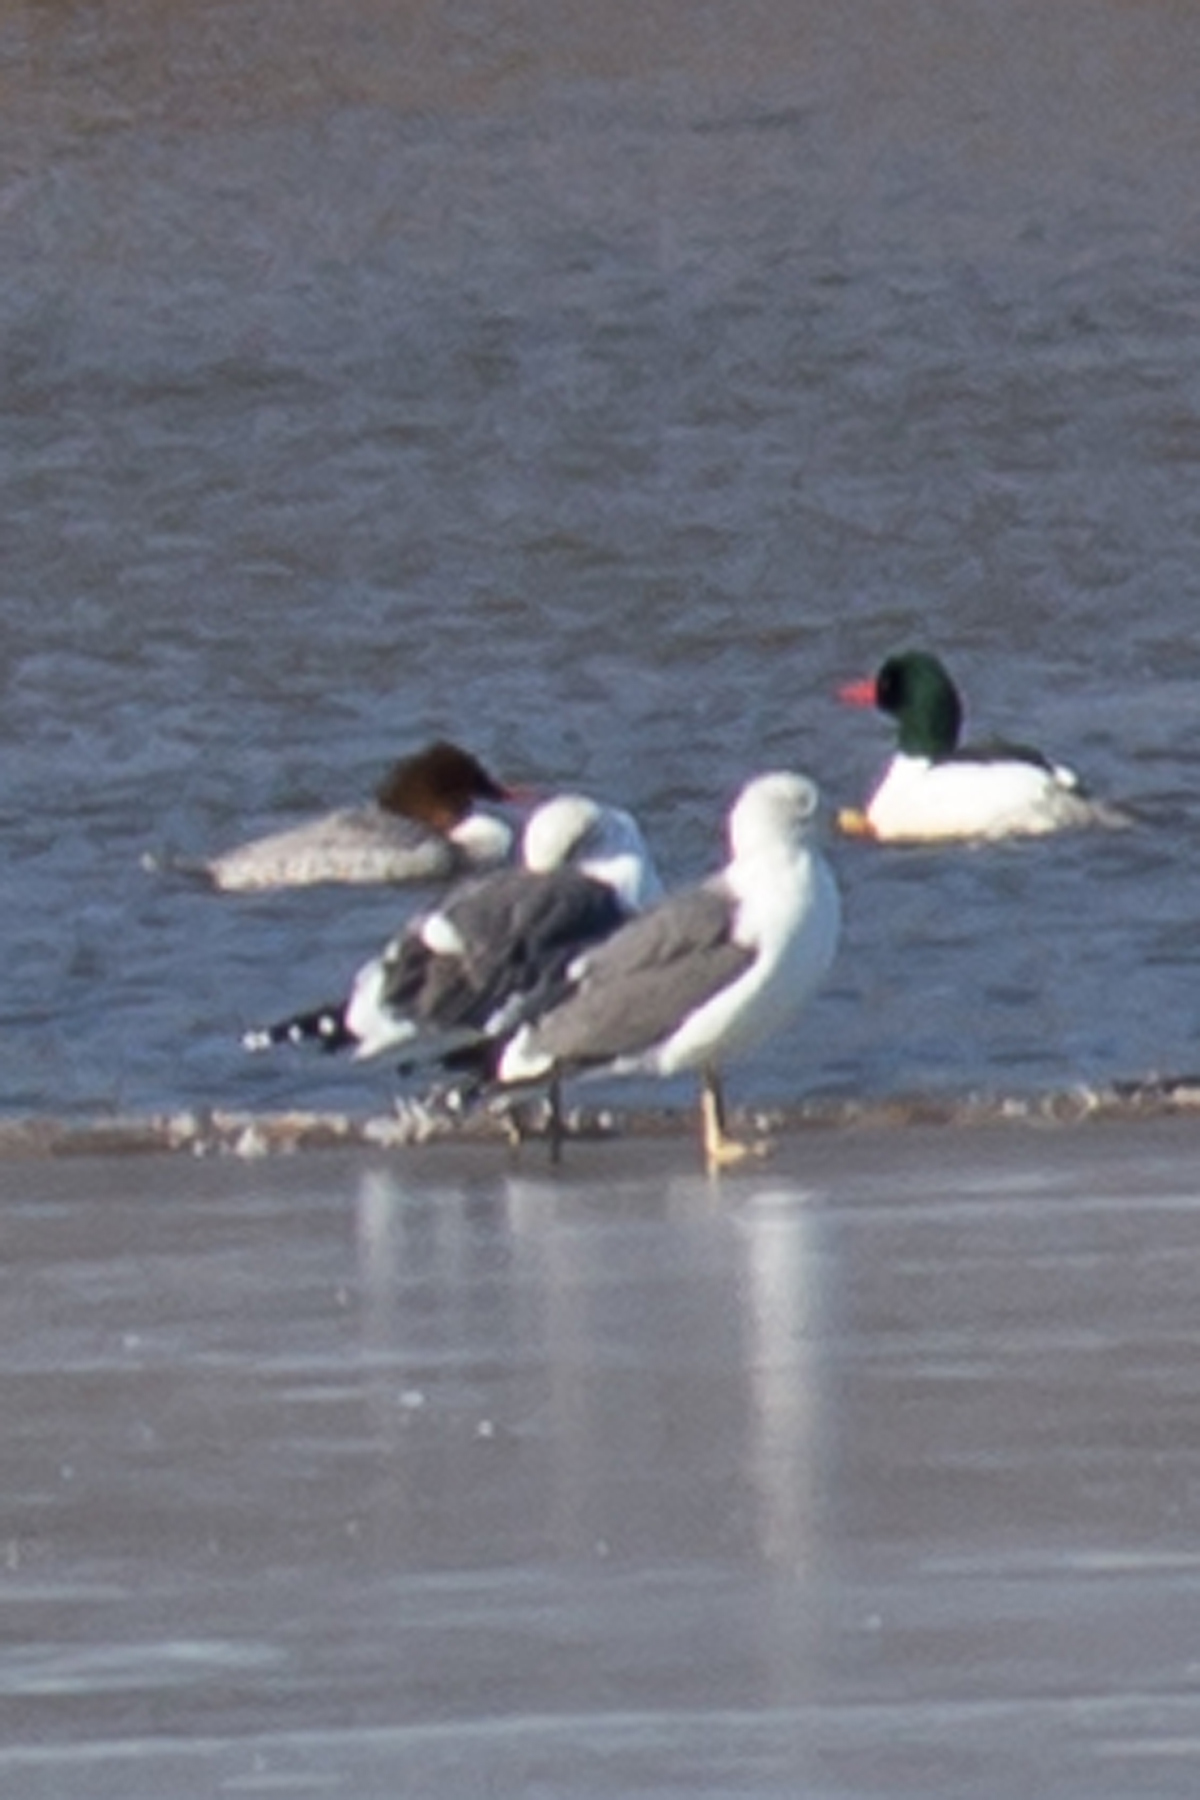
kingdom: Animalia
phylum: Chordata
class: Aves
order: Charadriiformes
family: Laridae
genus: Larus
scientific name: Larus fuscus
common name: Lesser black-backed gull
